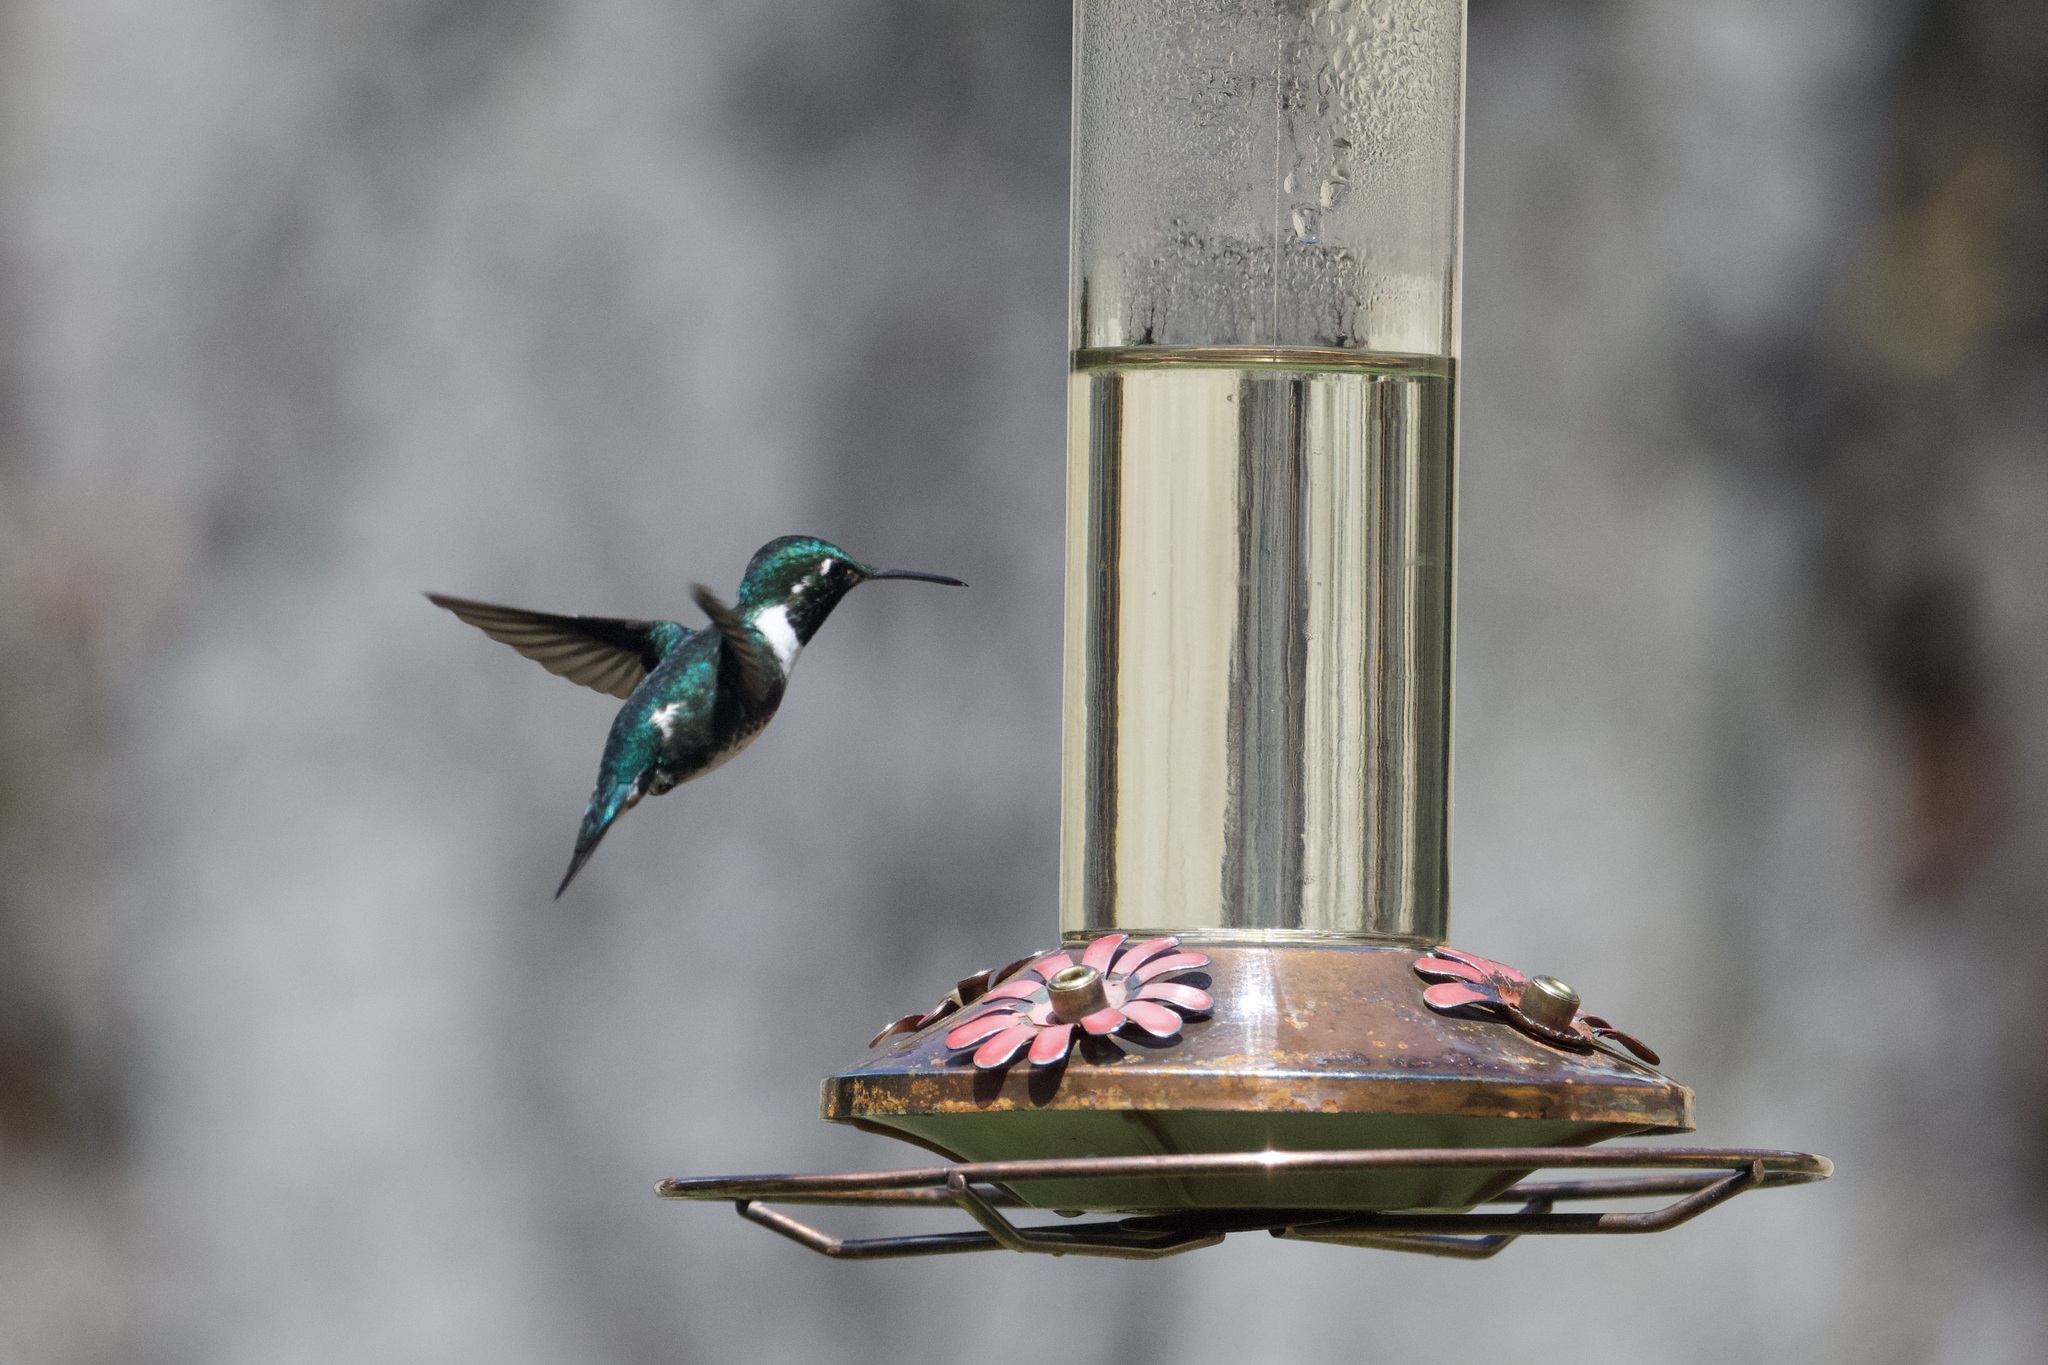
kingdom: Animalia
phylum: Chordata
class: Aves
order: Apodiformes
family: Trochilidae
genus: Chaetocercus
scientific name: Chaetocercus mulsant
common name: White-bellied woodstar
